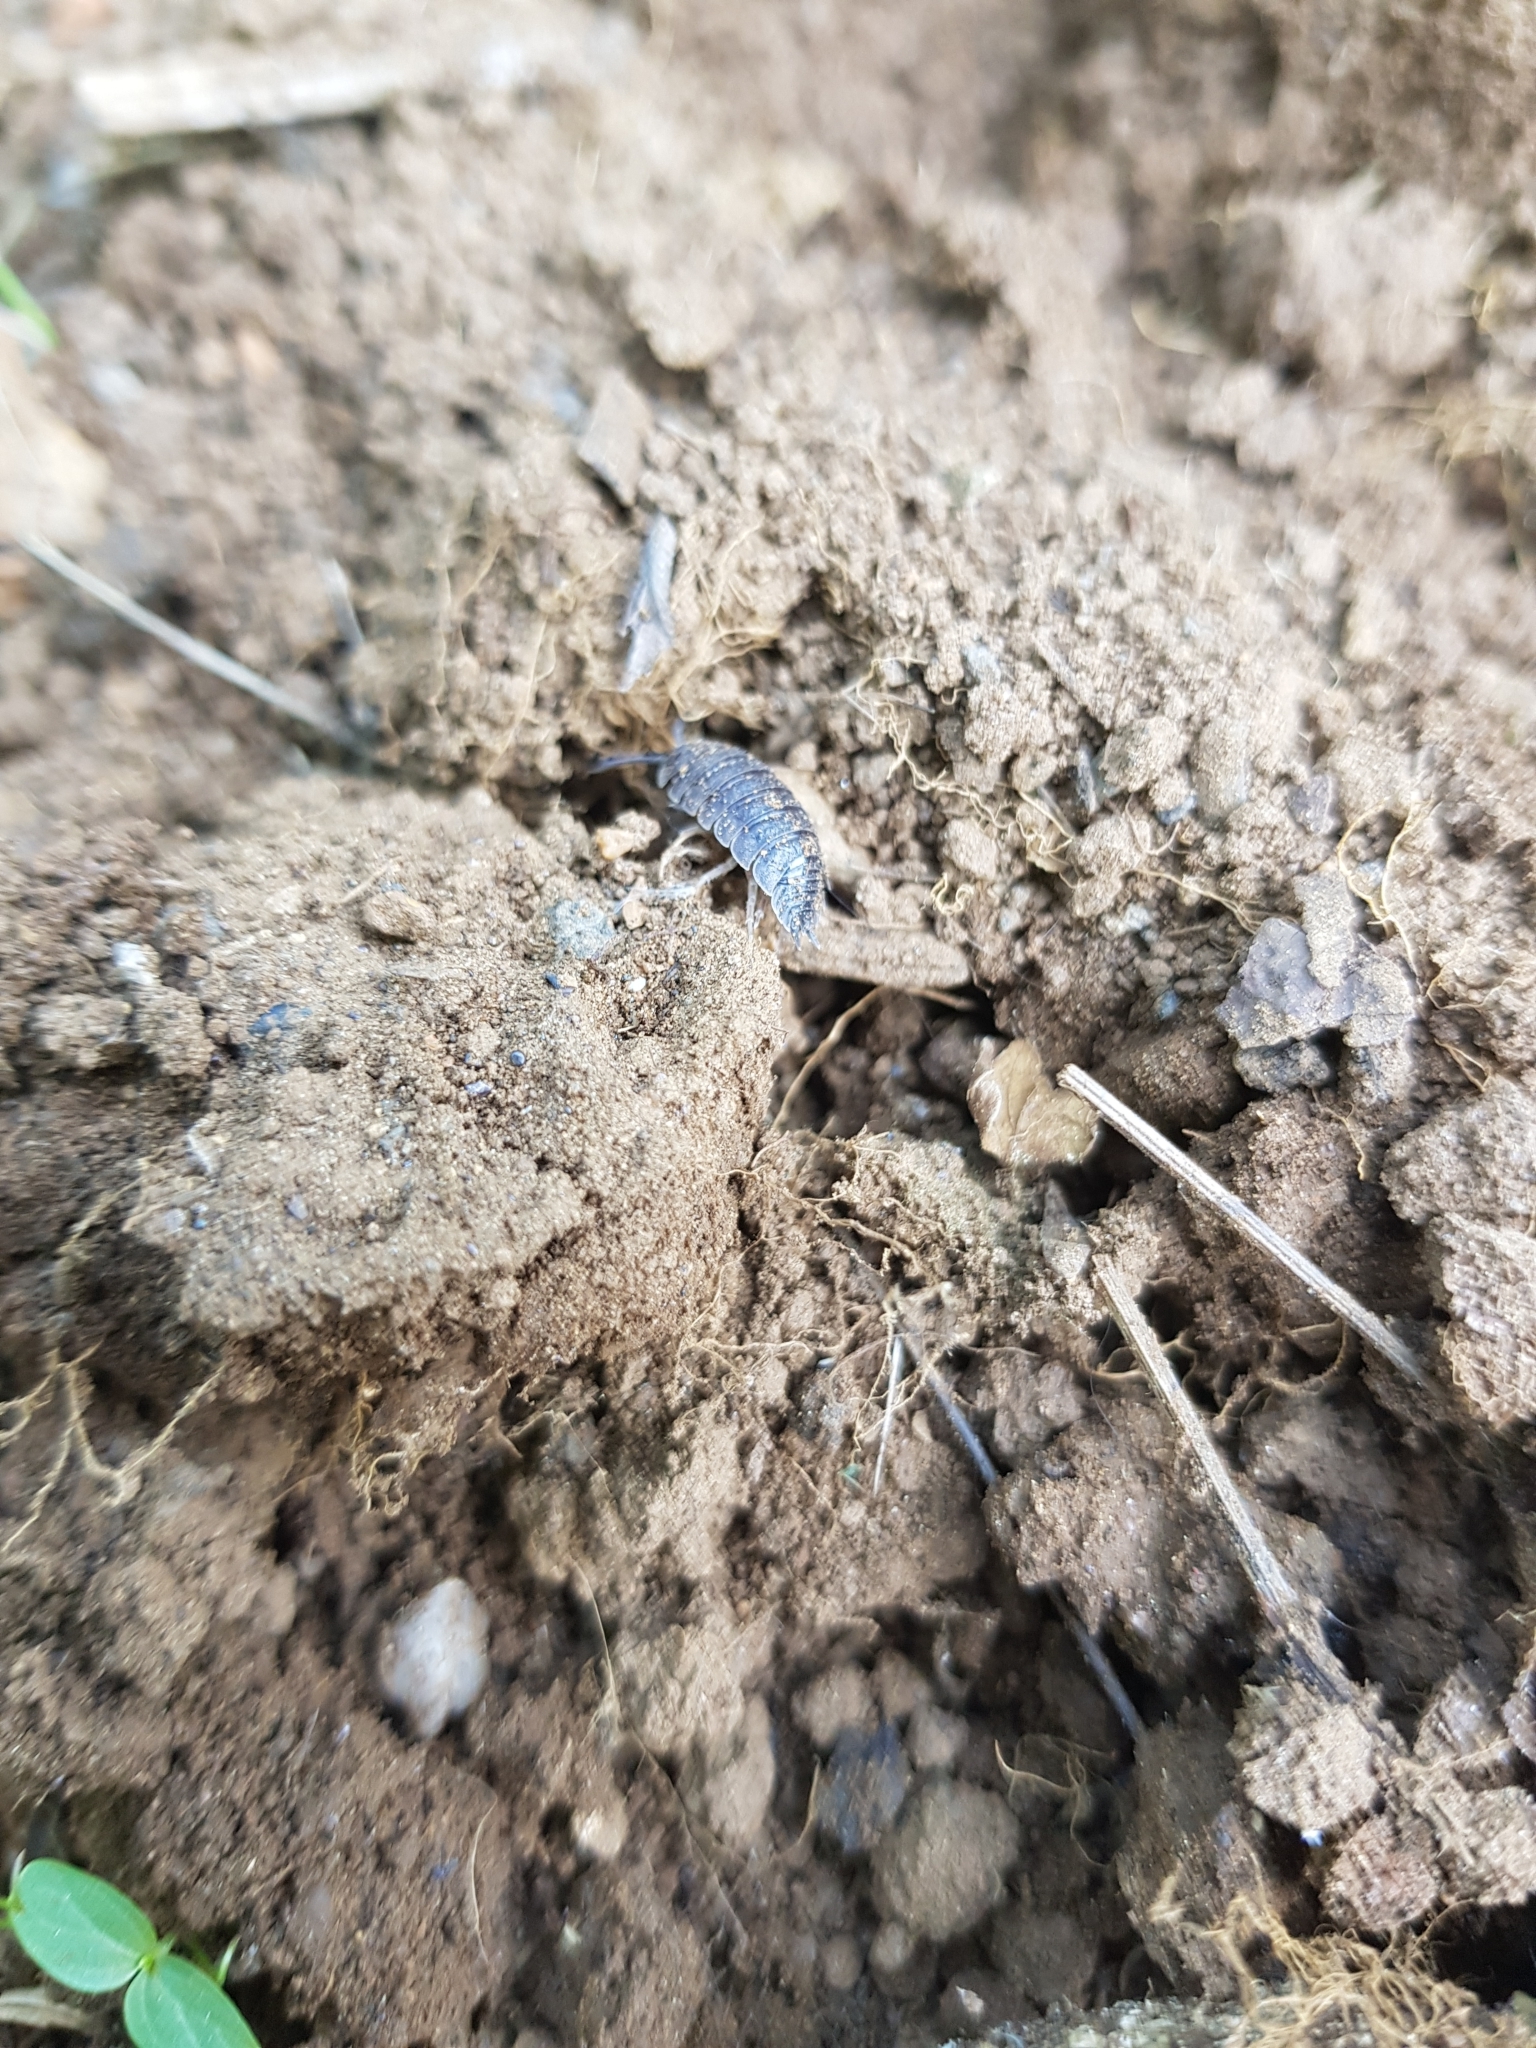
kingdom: Animalia
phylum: Arthropoda
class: Malacostraca
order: Isopoda
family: Porcellionidae
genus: Porcellio
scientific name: Porcellio scaber
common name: Common rough woodlouse
